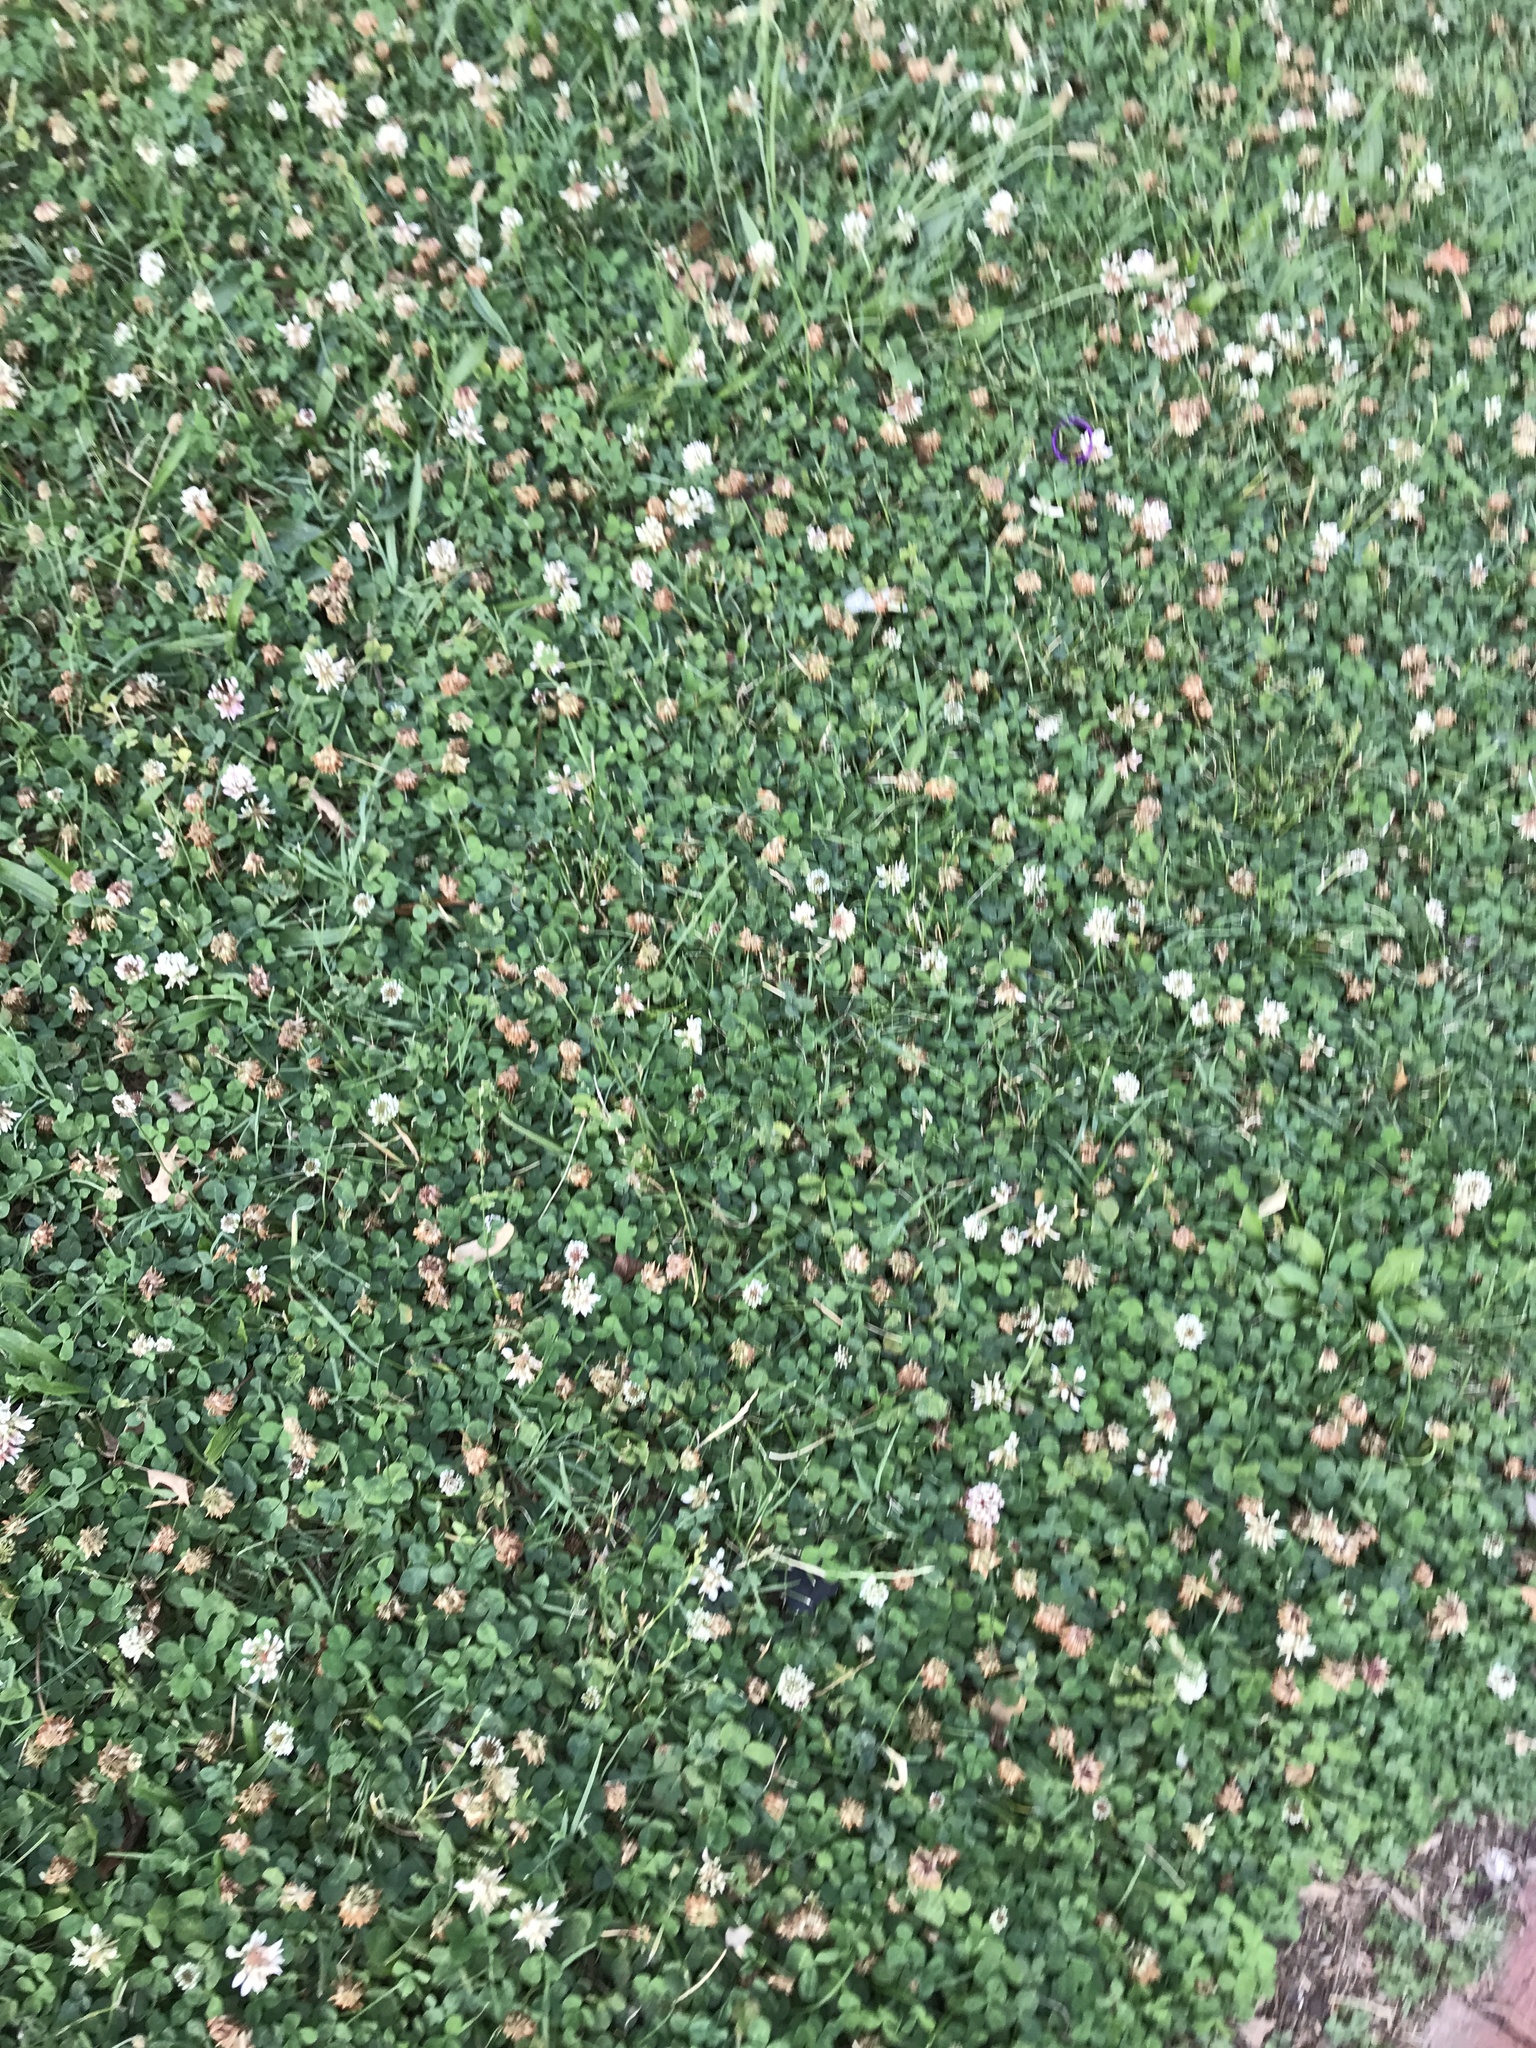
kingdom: Plantae
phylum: Tracheophyta
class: Magnoliopsida
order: Fabales
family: Fabaceae
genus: Trifolium
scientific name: Trifolium repens
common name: White clover
